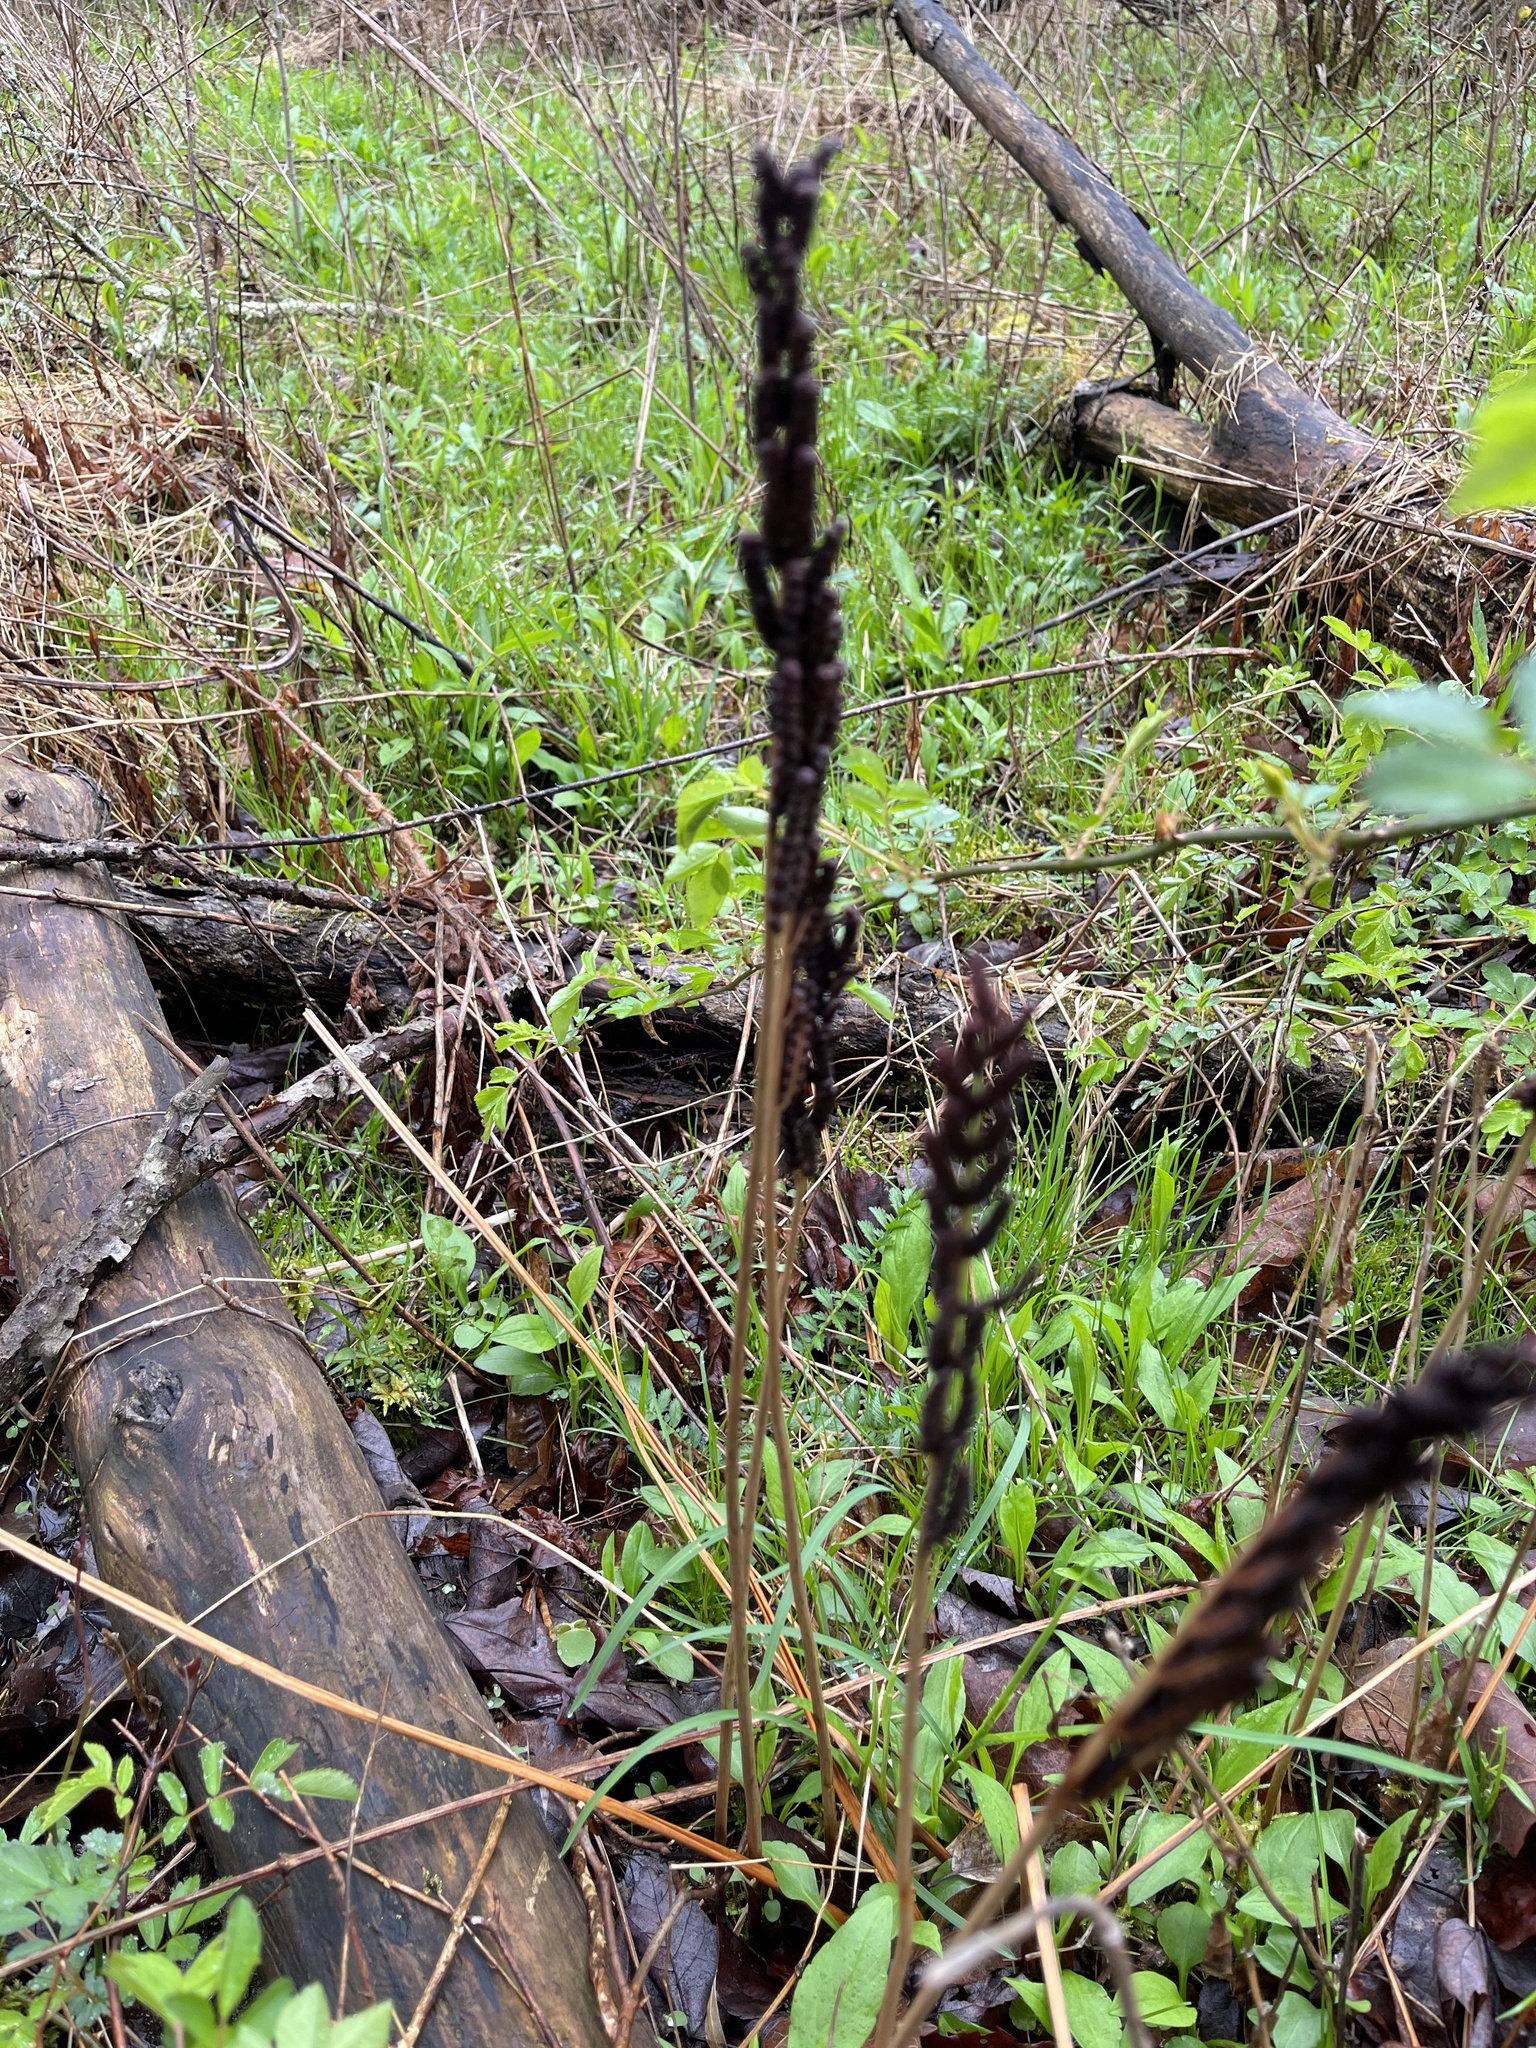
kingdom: Plantae
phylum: Tracheophyta
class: Polypodiopsida
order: Polypodiales
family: Onocleaceae
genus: Onoclea
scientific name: Onoclea sensibilis
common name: Sensitive fern
